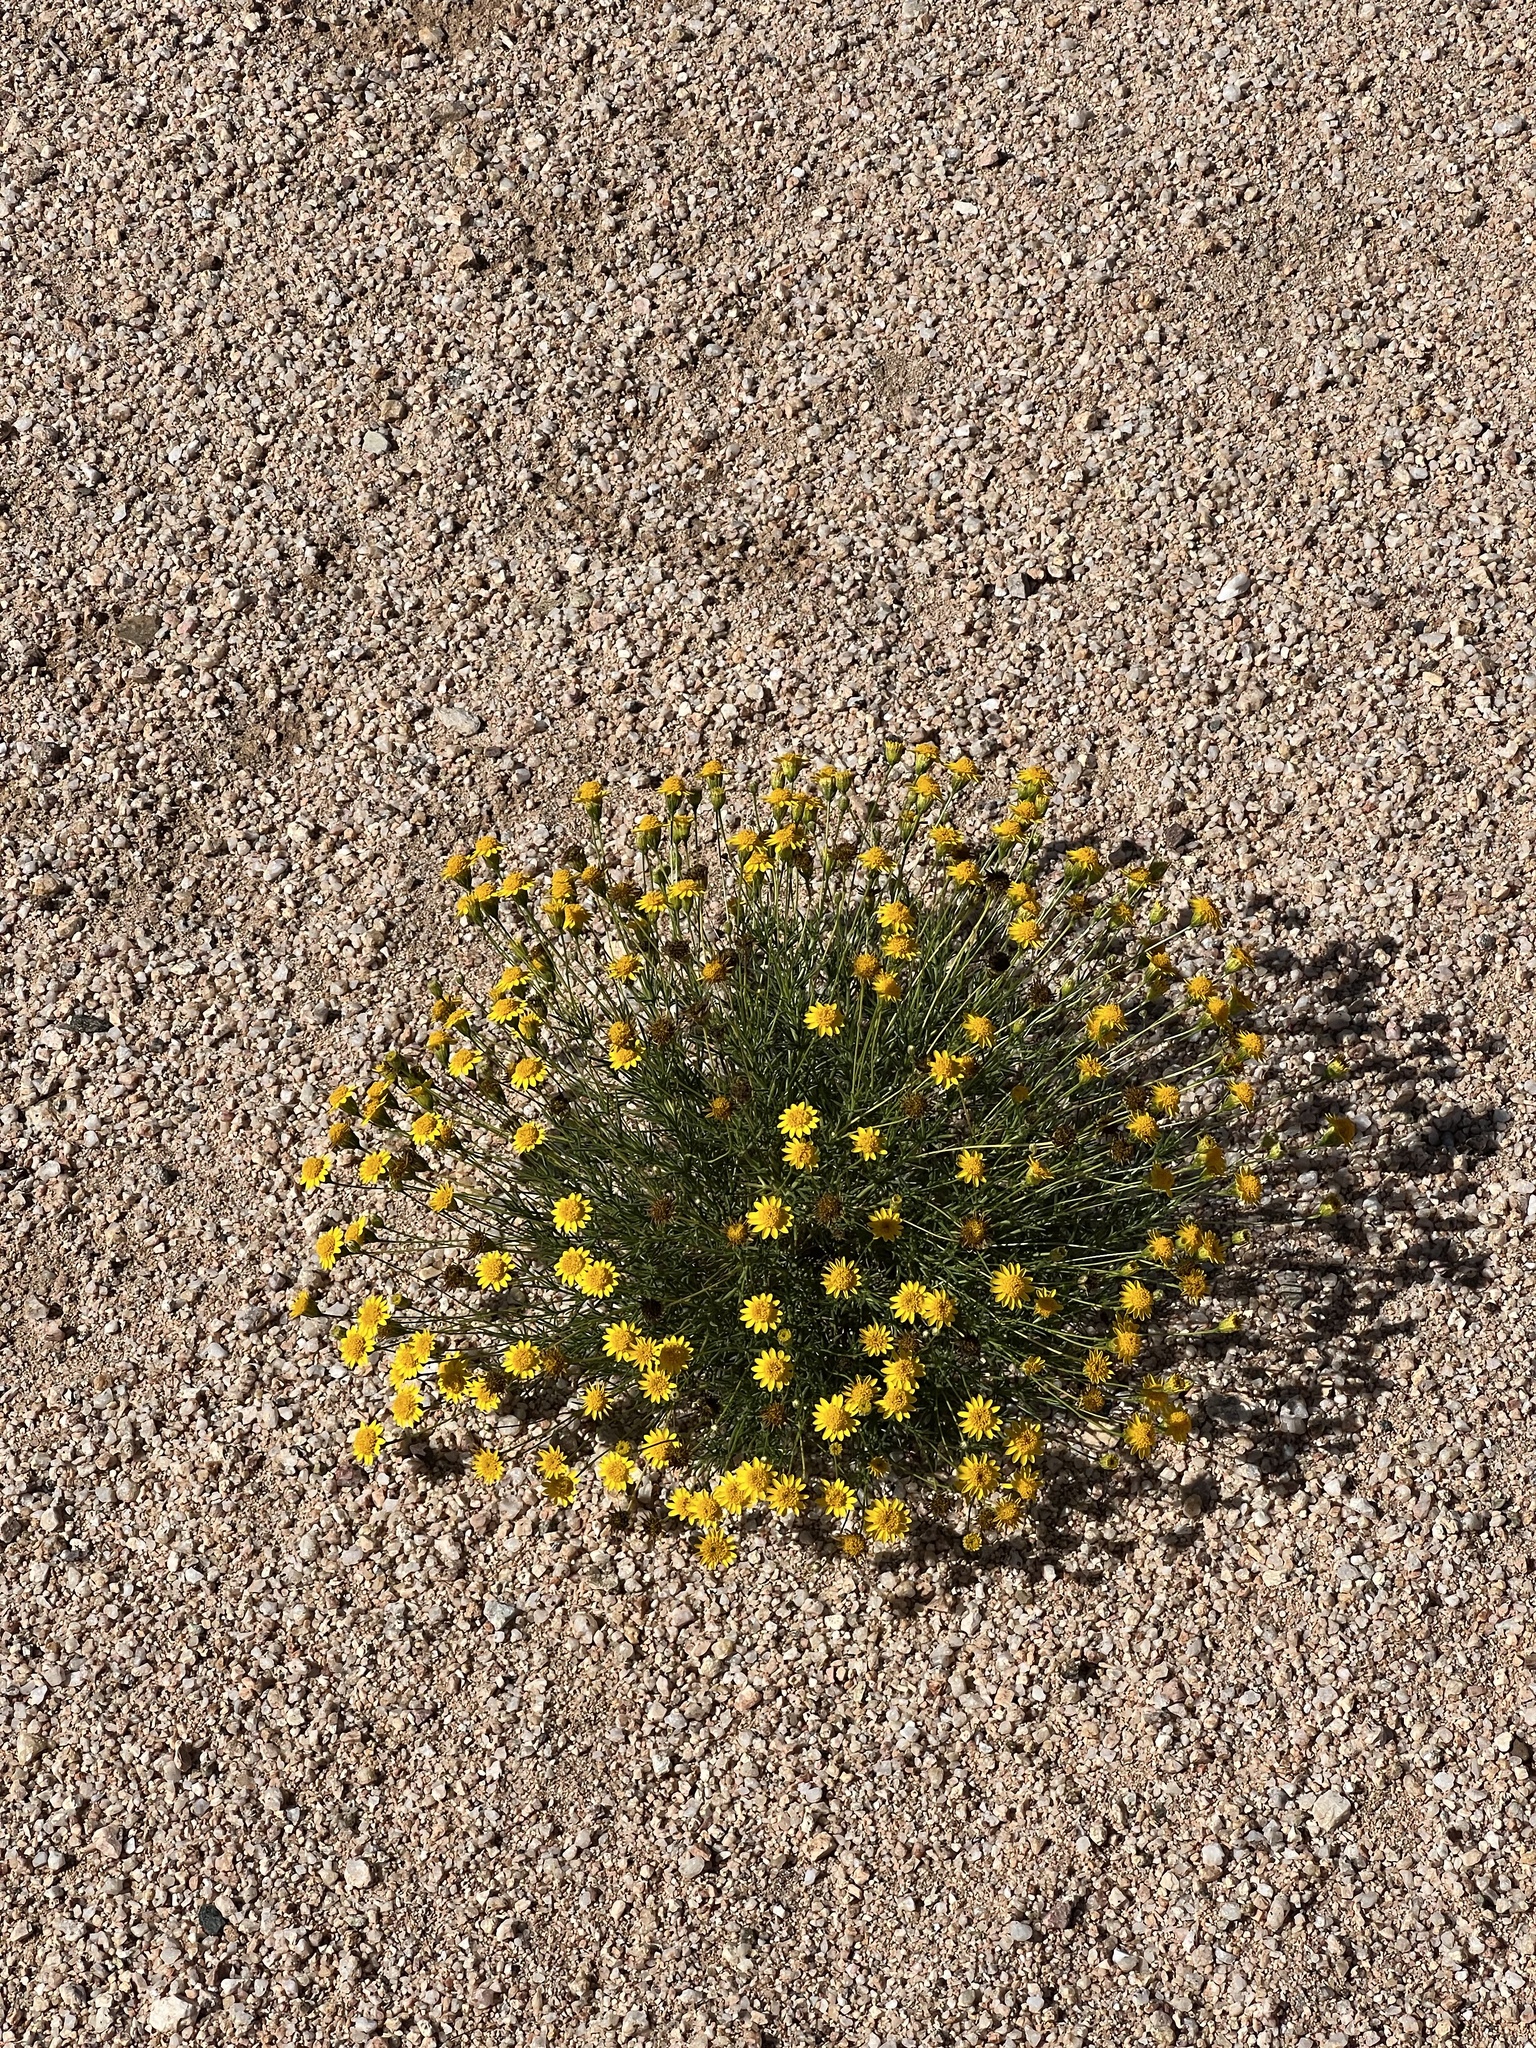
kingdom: Plantae
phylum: Tracheophyta
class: Magnoliopsida
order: Asterales
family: Asteraceae
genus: Thymophylla
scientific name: Thymophylla pentachaeta
